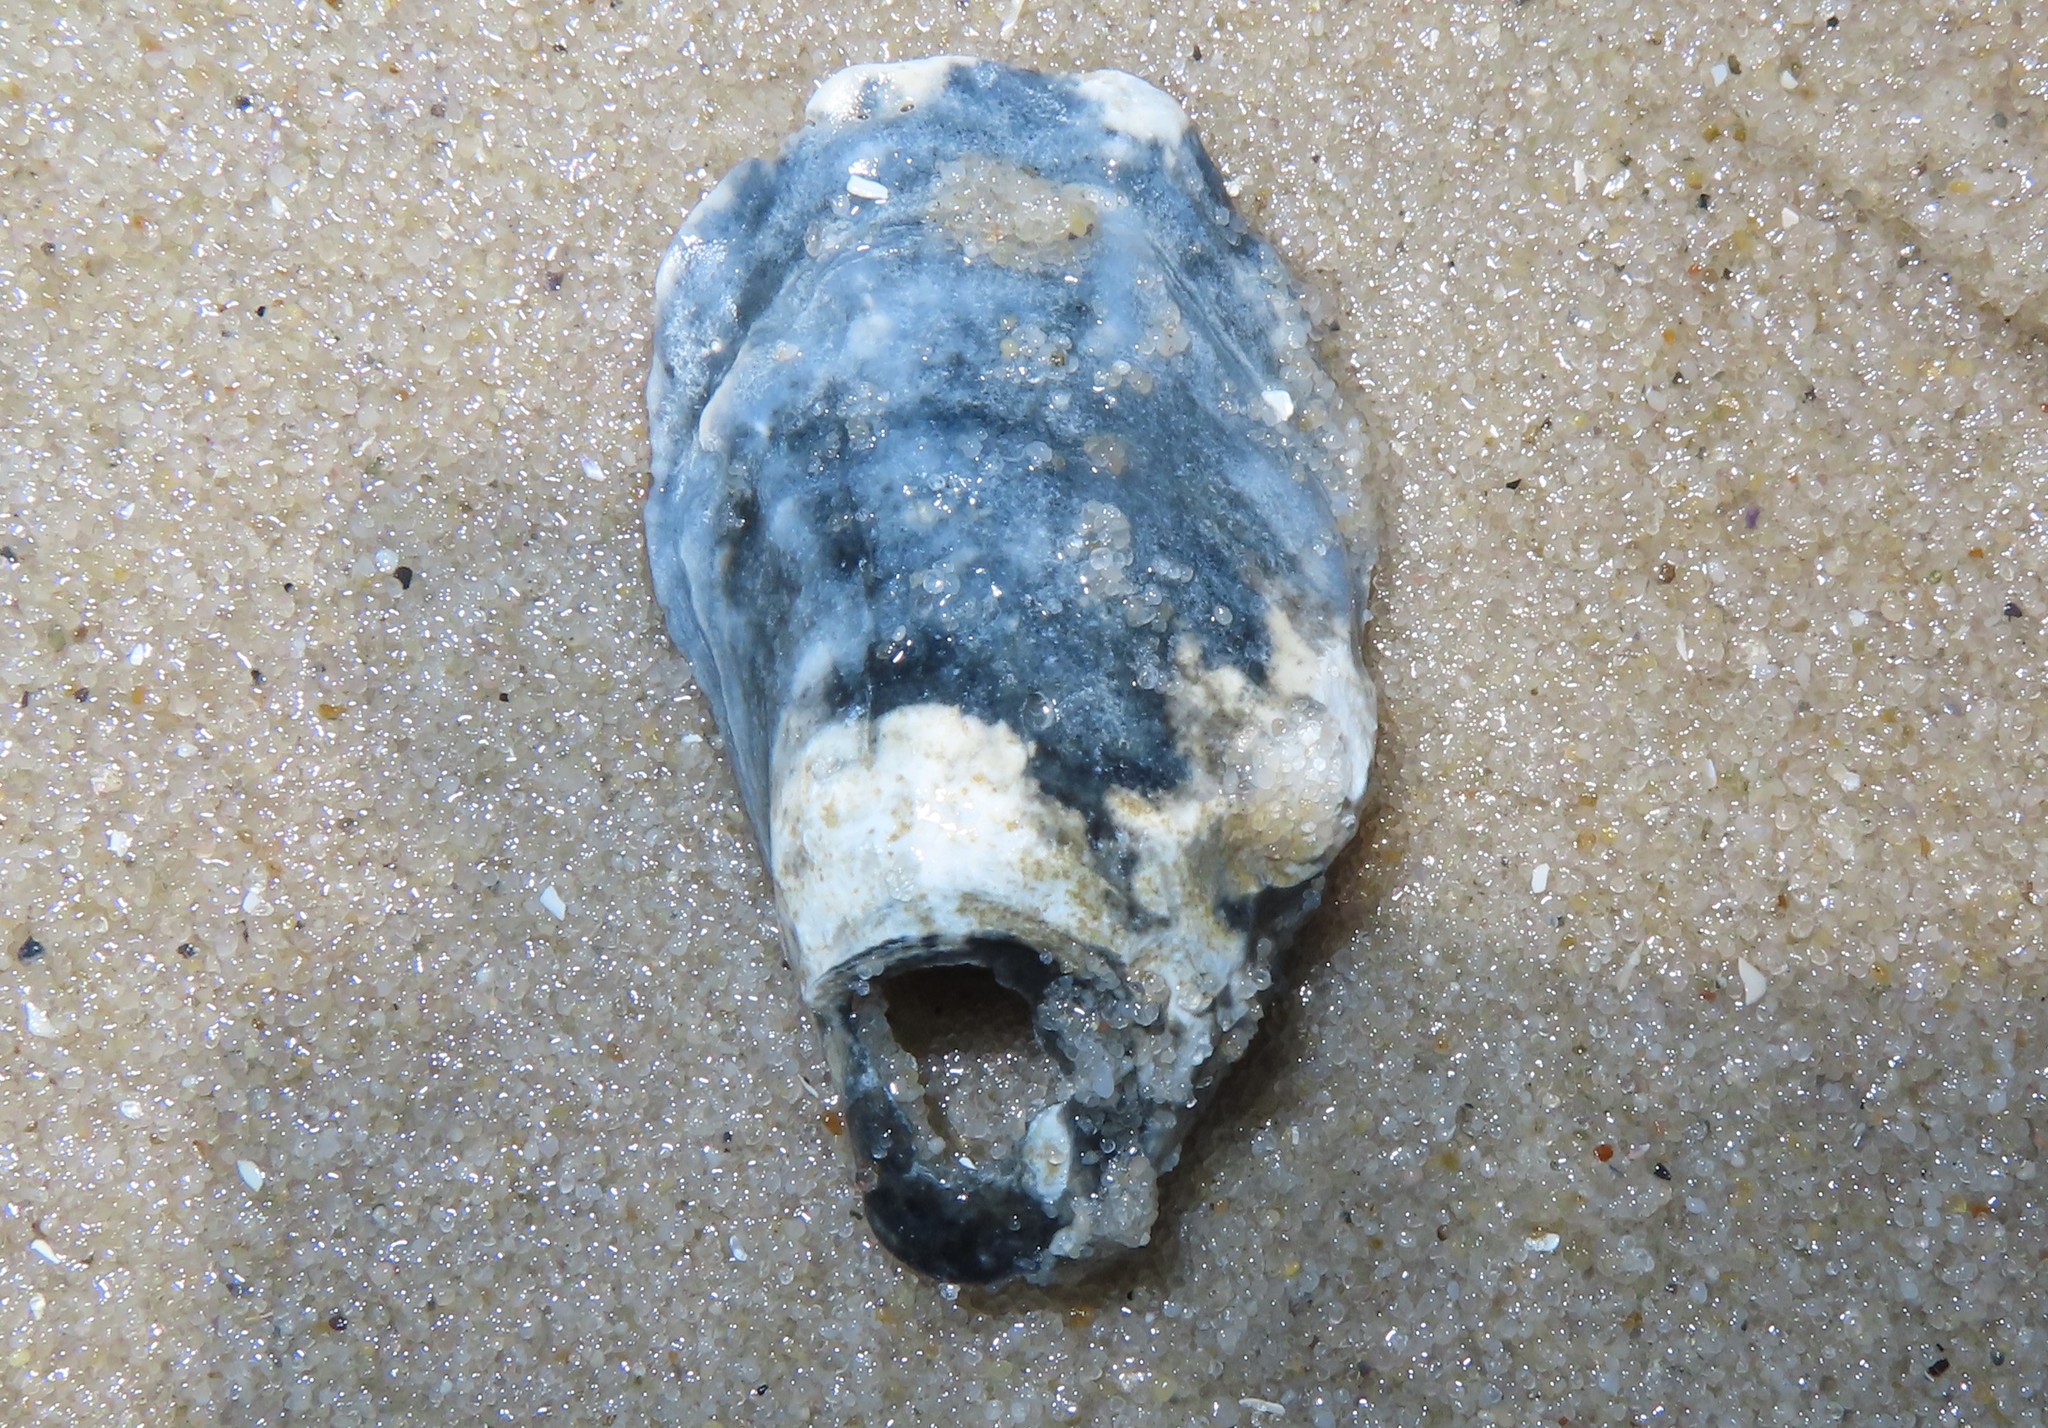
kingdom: Animalia
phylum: Mollusca
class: Bivalvia
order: Ostreida
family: Ostreidae
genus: Crassostrea
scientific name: Crassostrea virginica
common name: American oyster
